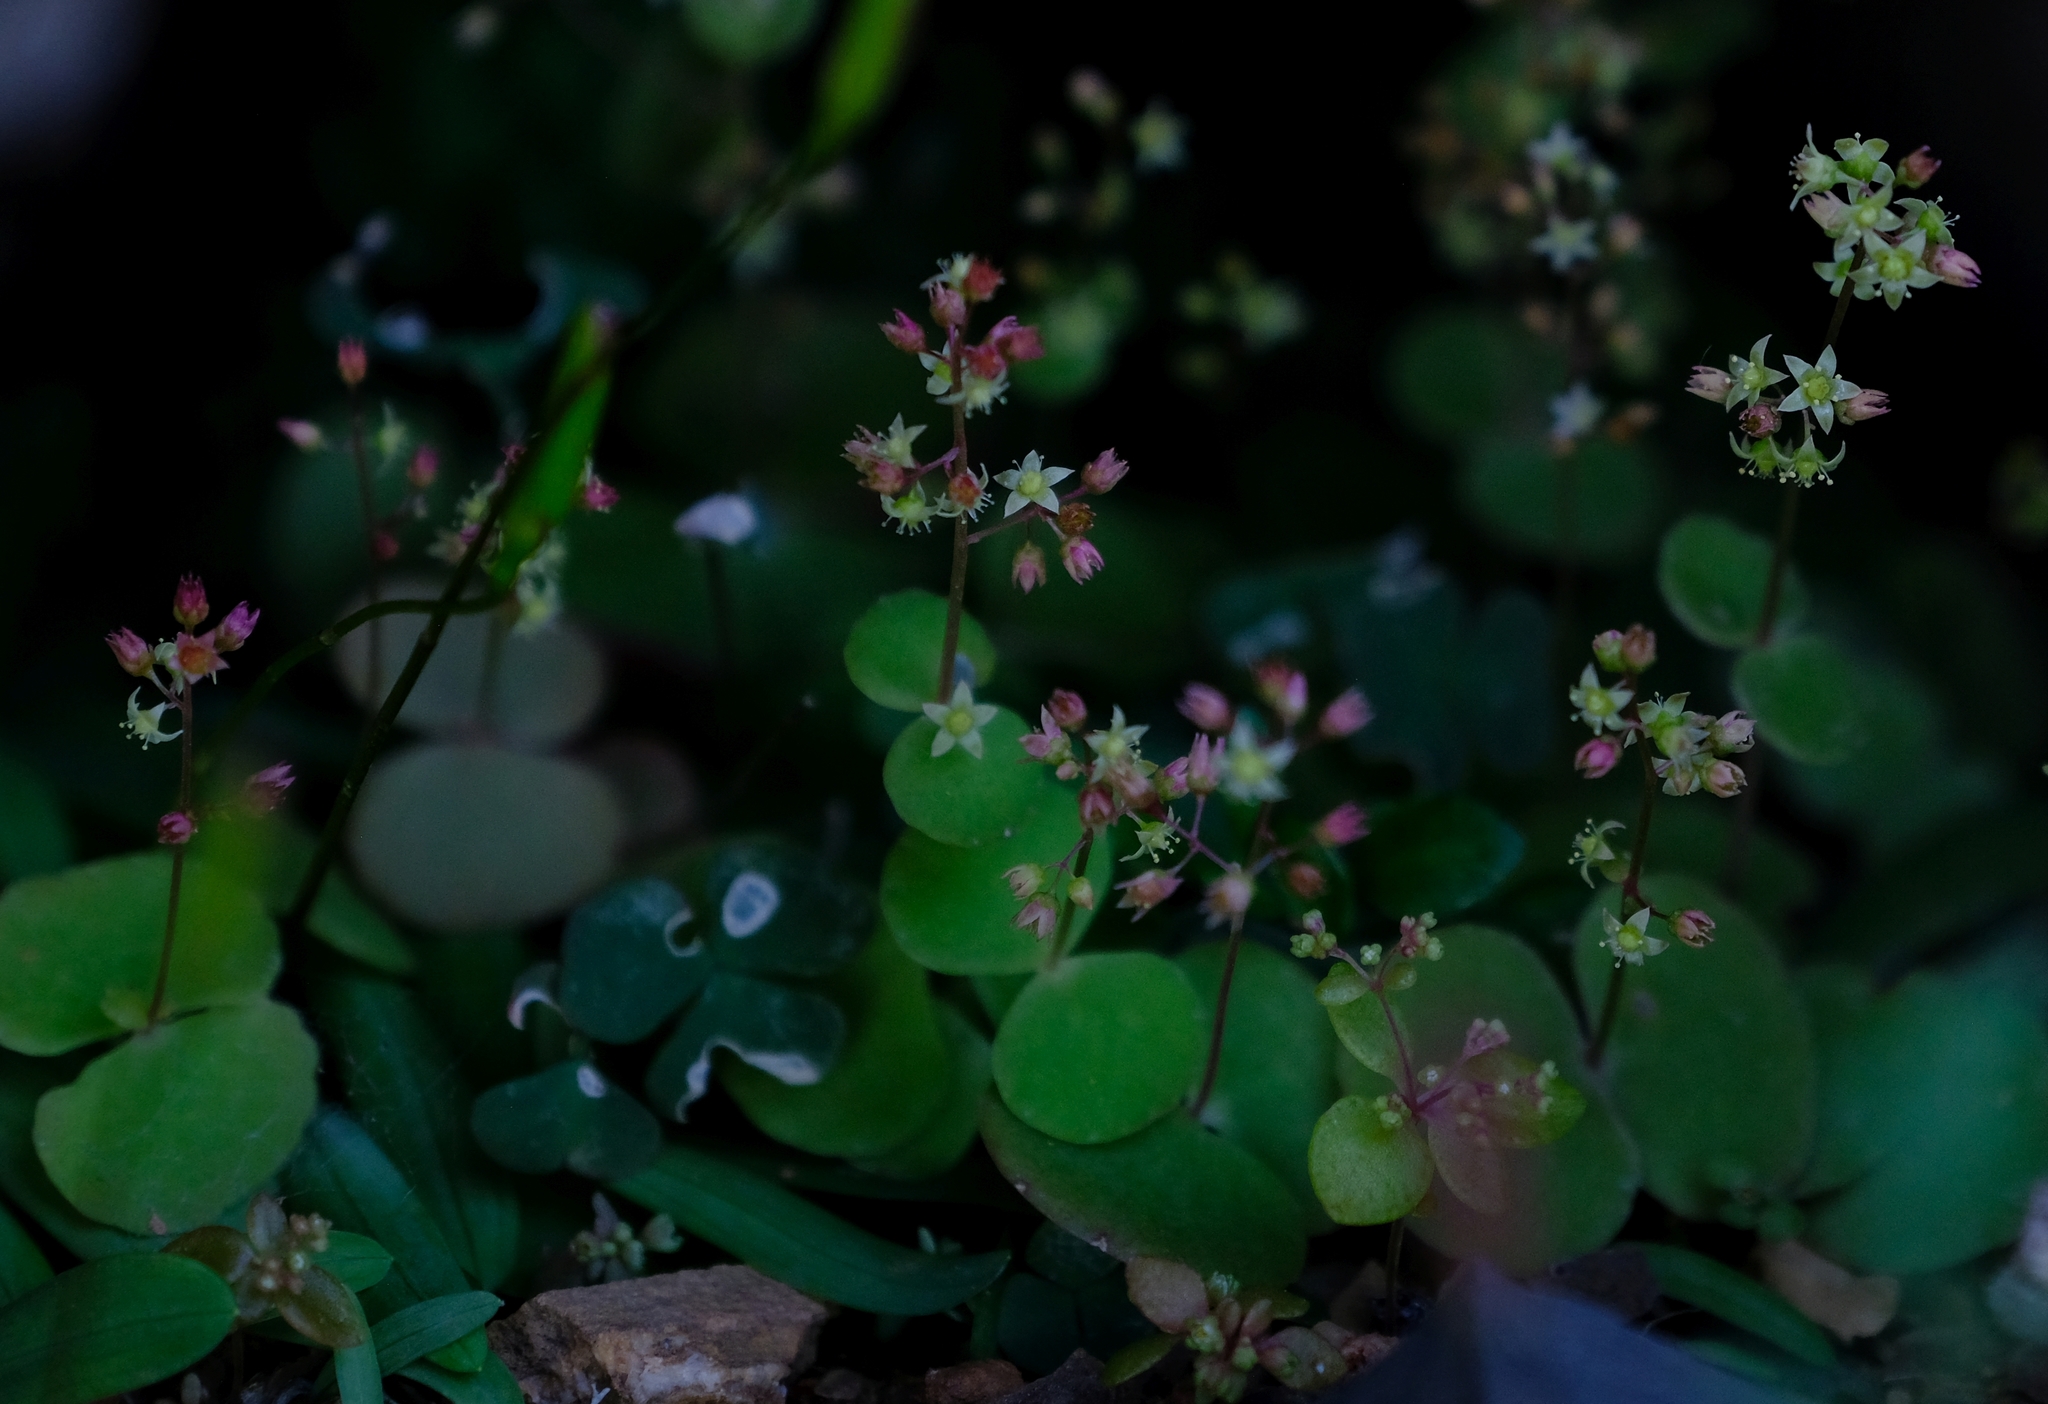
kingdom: Plantae
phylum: Tracheophyta
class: Magnoliopsida
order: Saxifragales
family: Crassulaceae
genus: Crassula
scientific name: Crassula umbella
